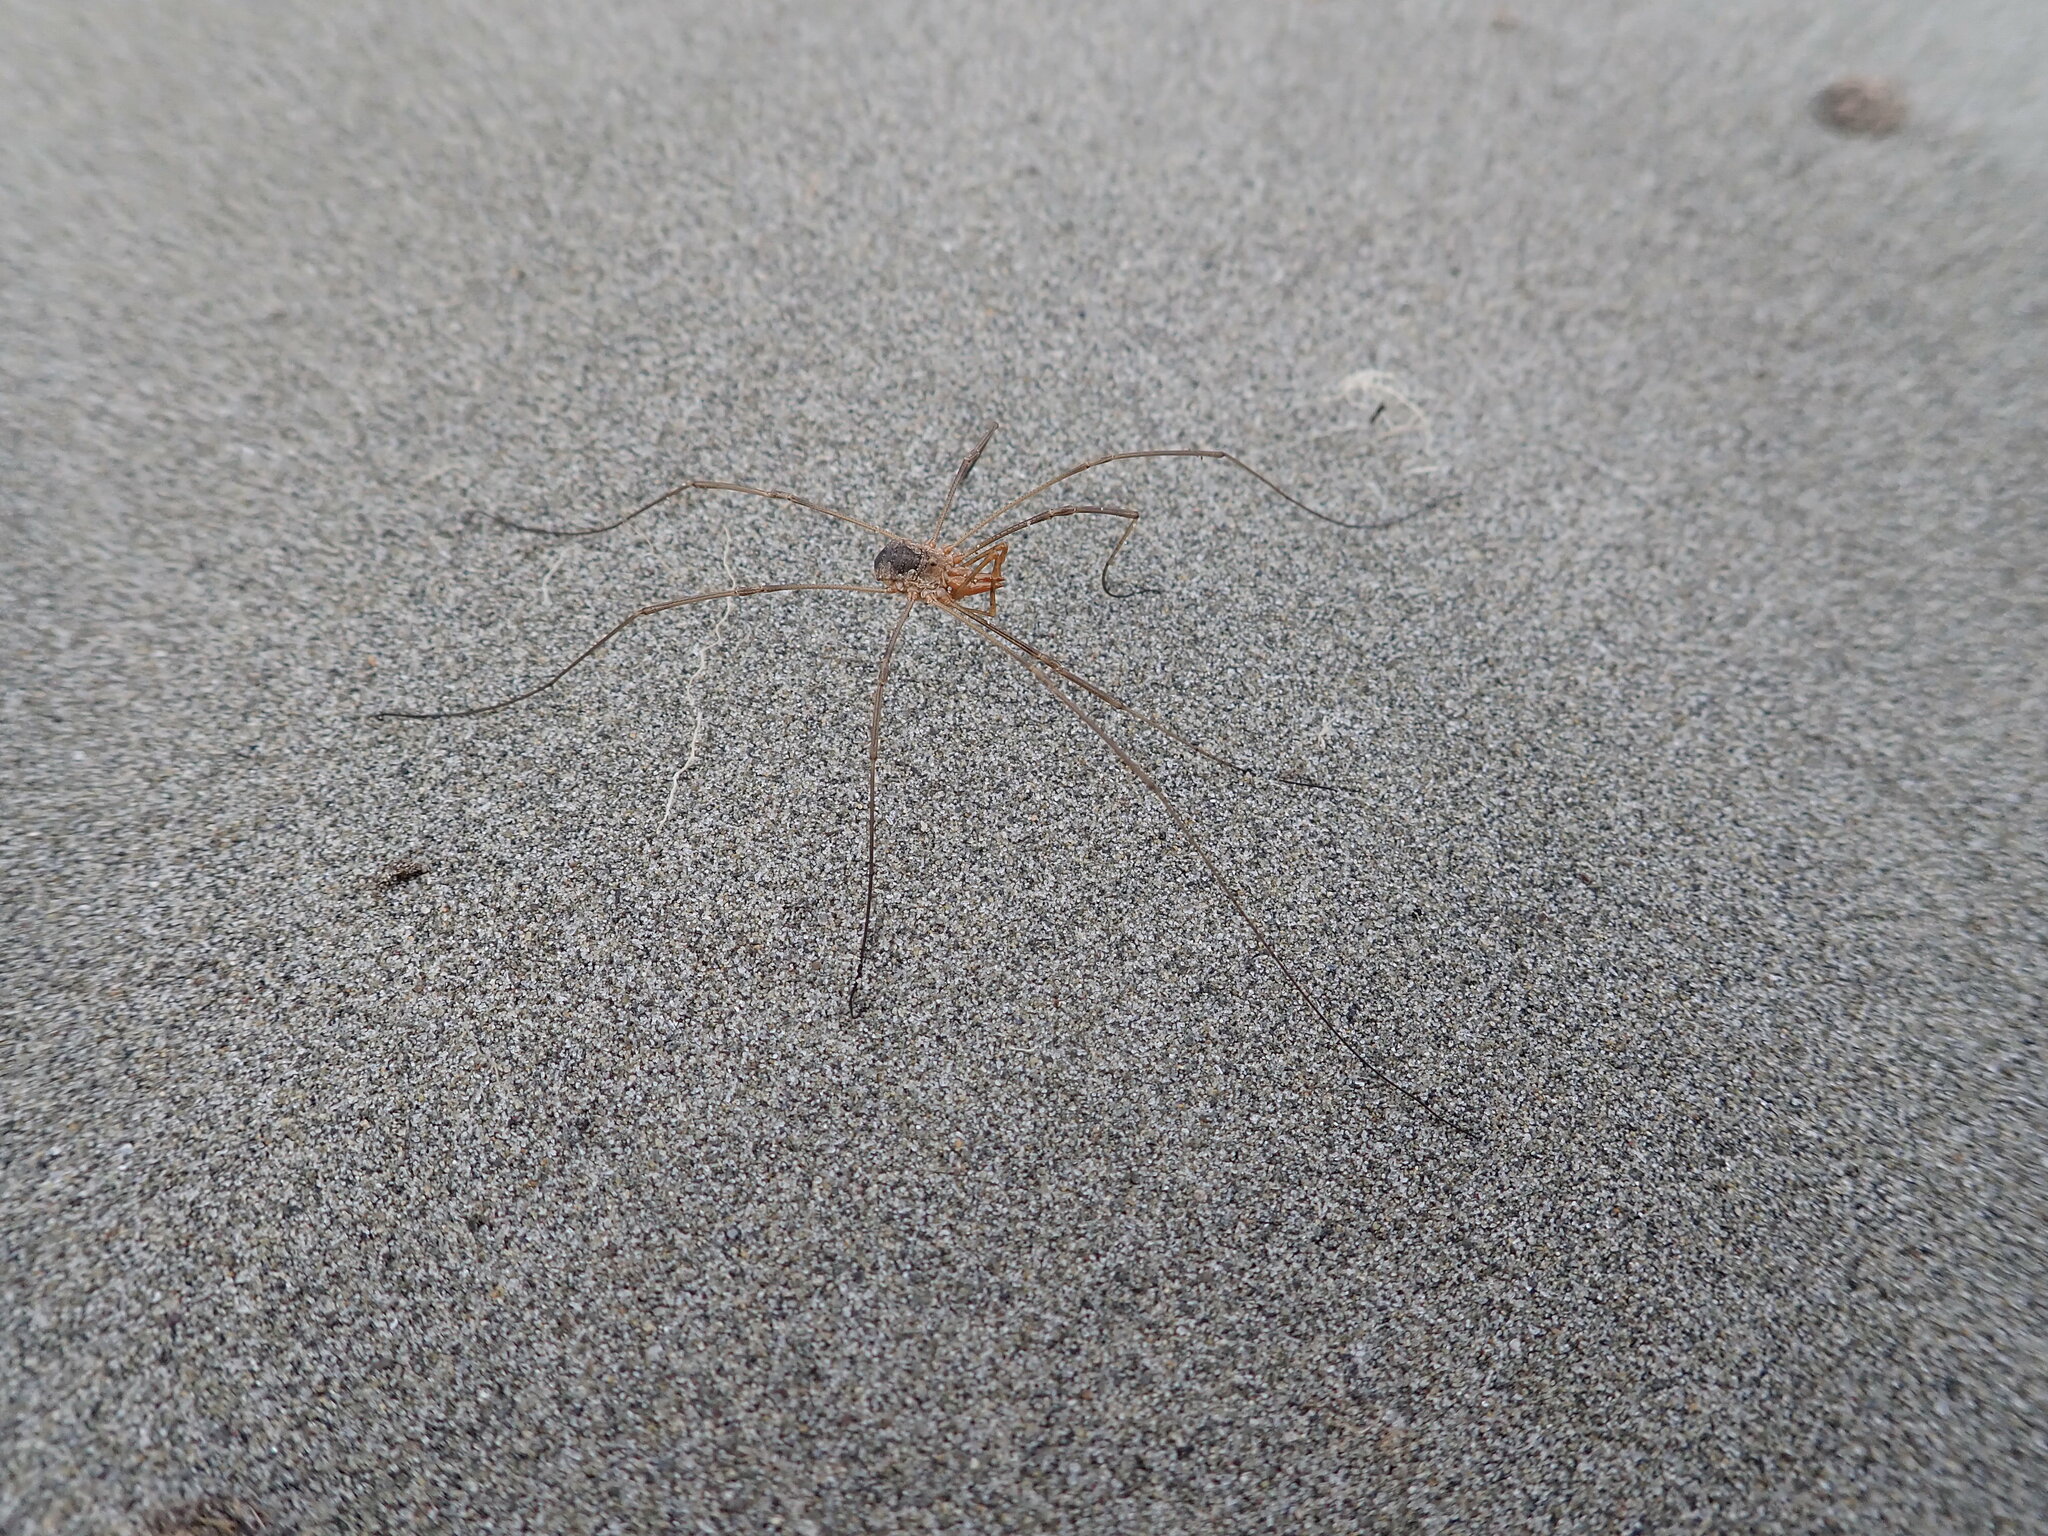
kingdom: Animalia
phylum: Arthropoda
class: Arachnida
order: Opiliones
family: Phalangiidae
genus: Phalangium
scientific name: Phalangium opilio
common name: Daddy longleg
